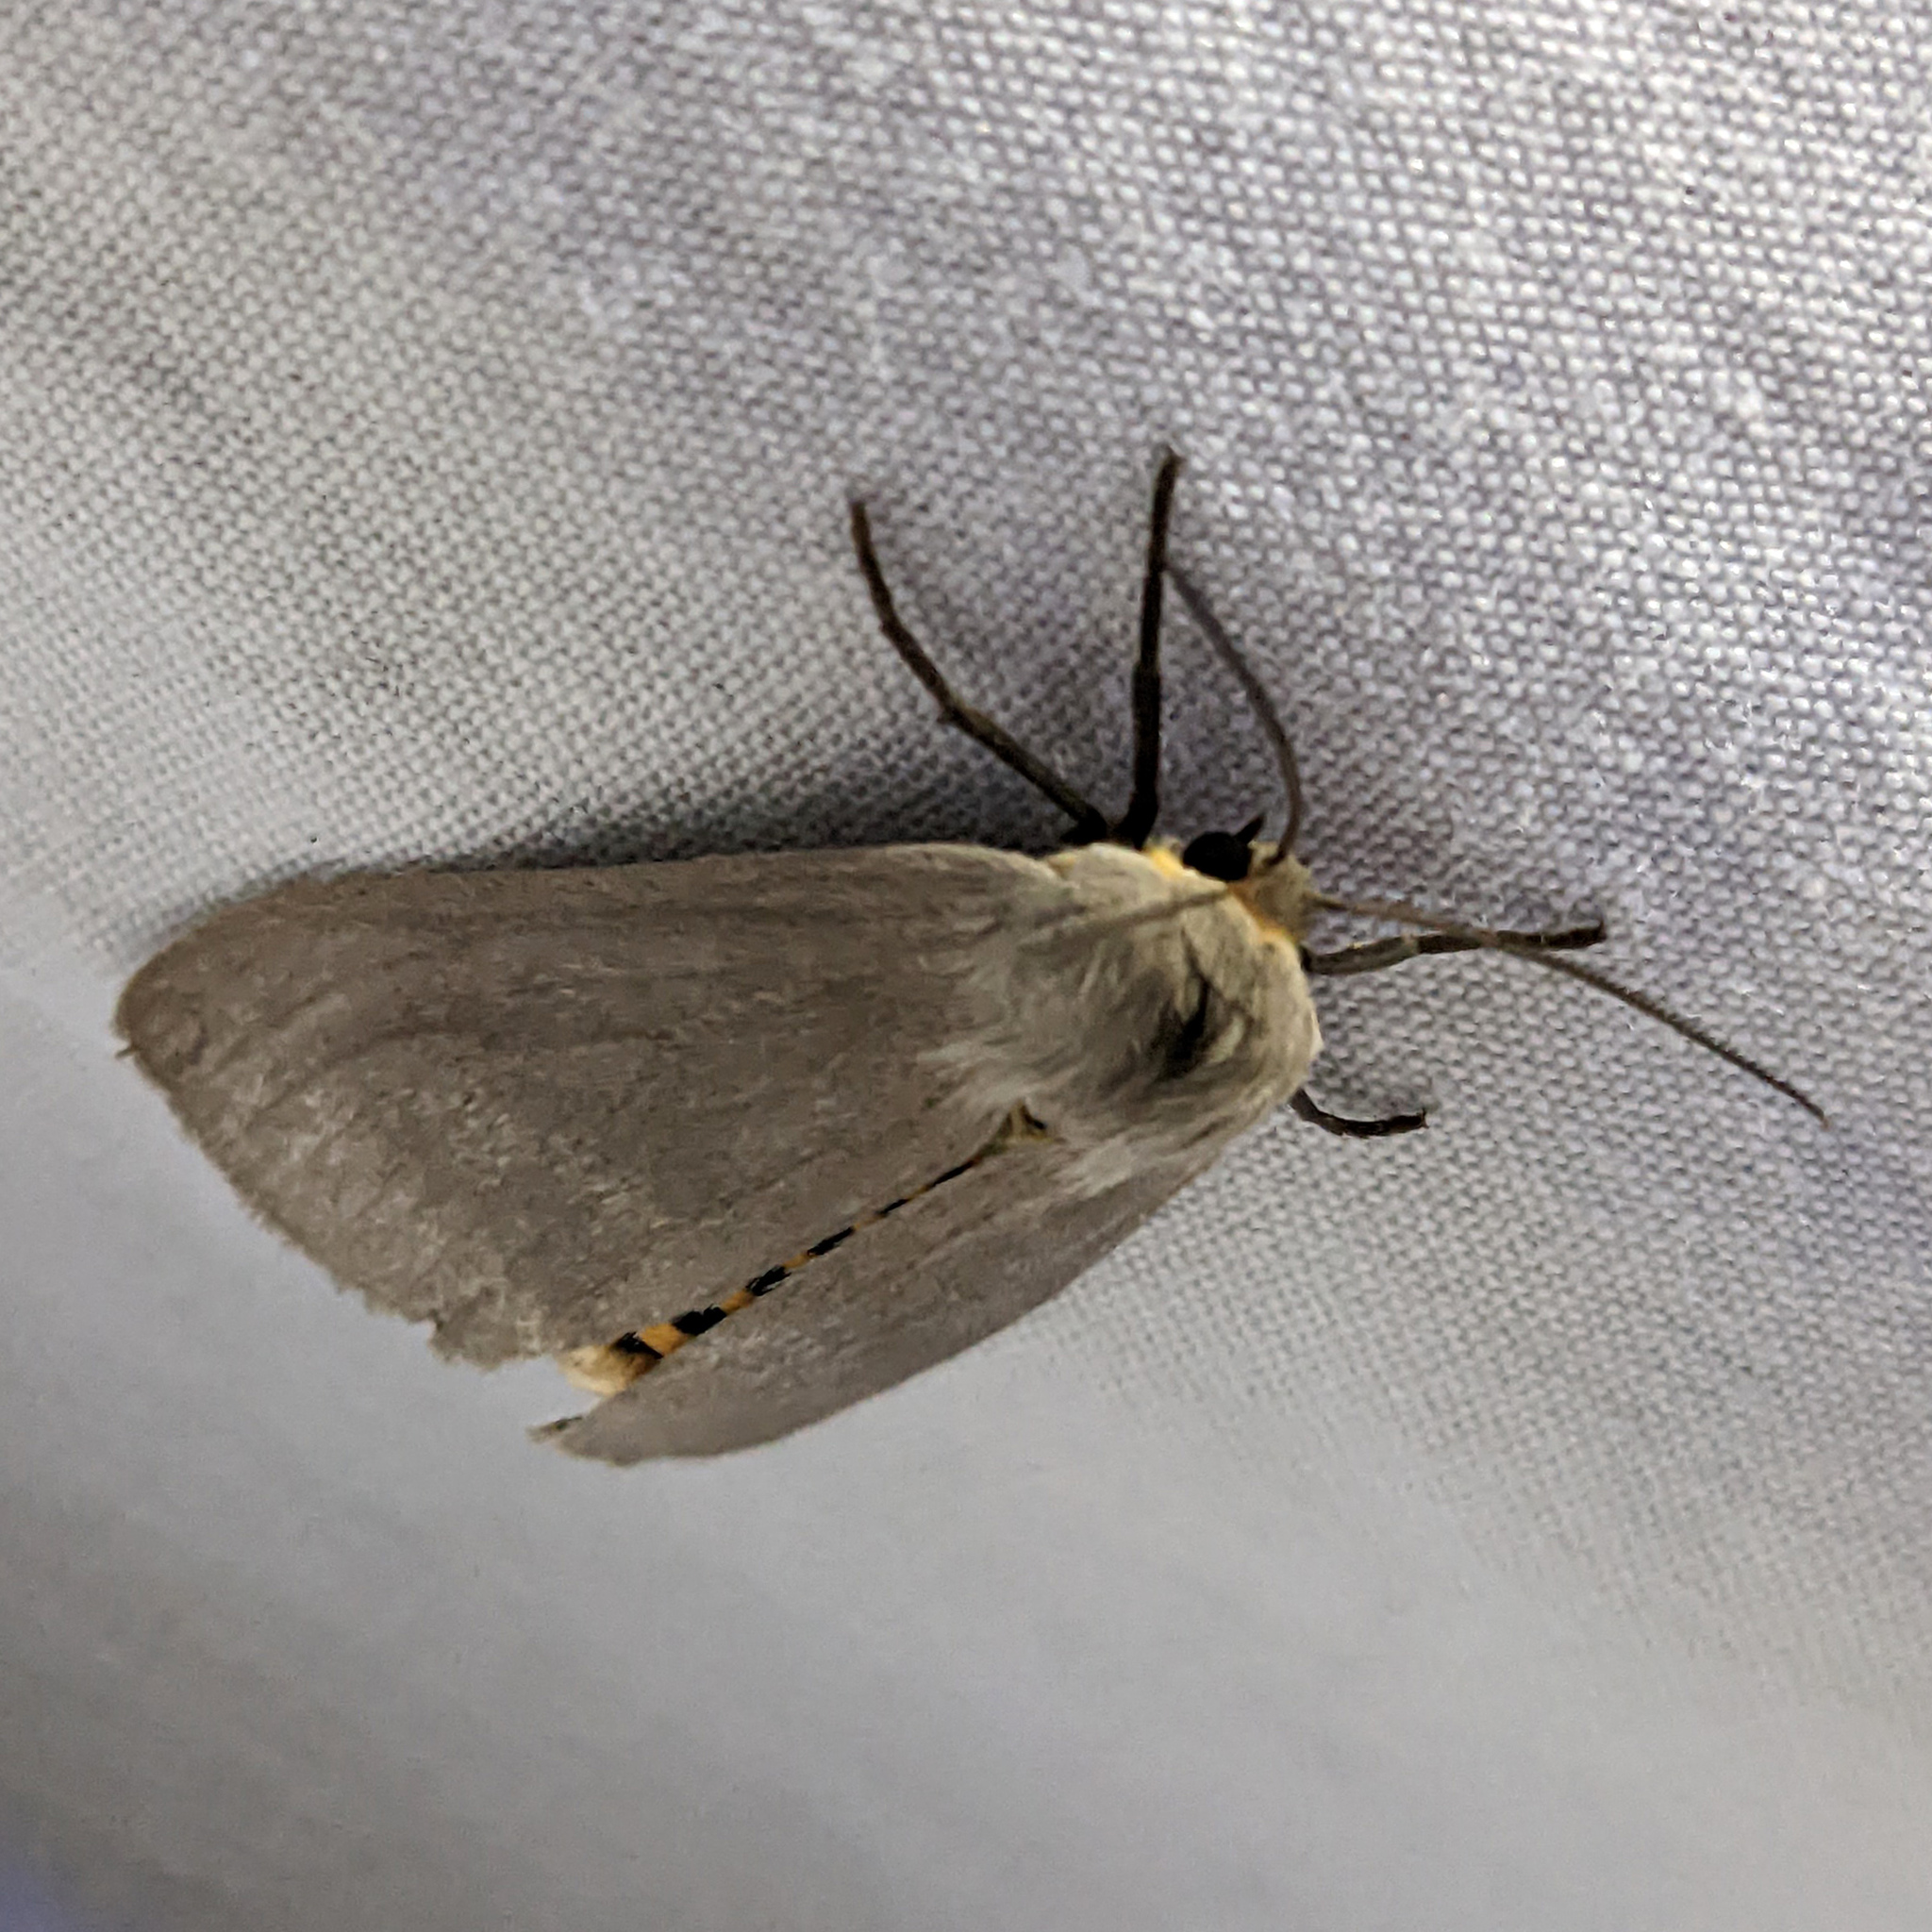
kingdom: Animalia
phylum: Arthropoda
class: Insecta
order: Lepidoptera
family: Erebidae
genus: Euchaetes
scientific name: Euchaetes egle
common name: Milkweed tussock moth
